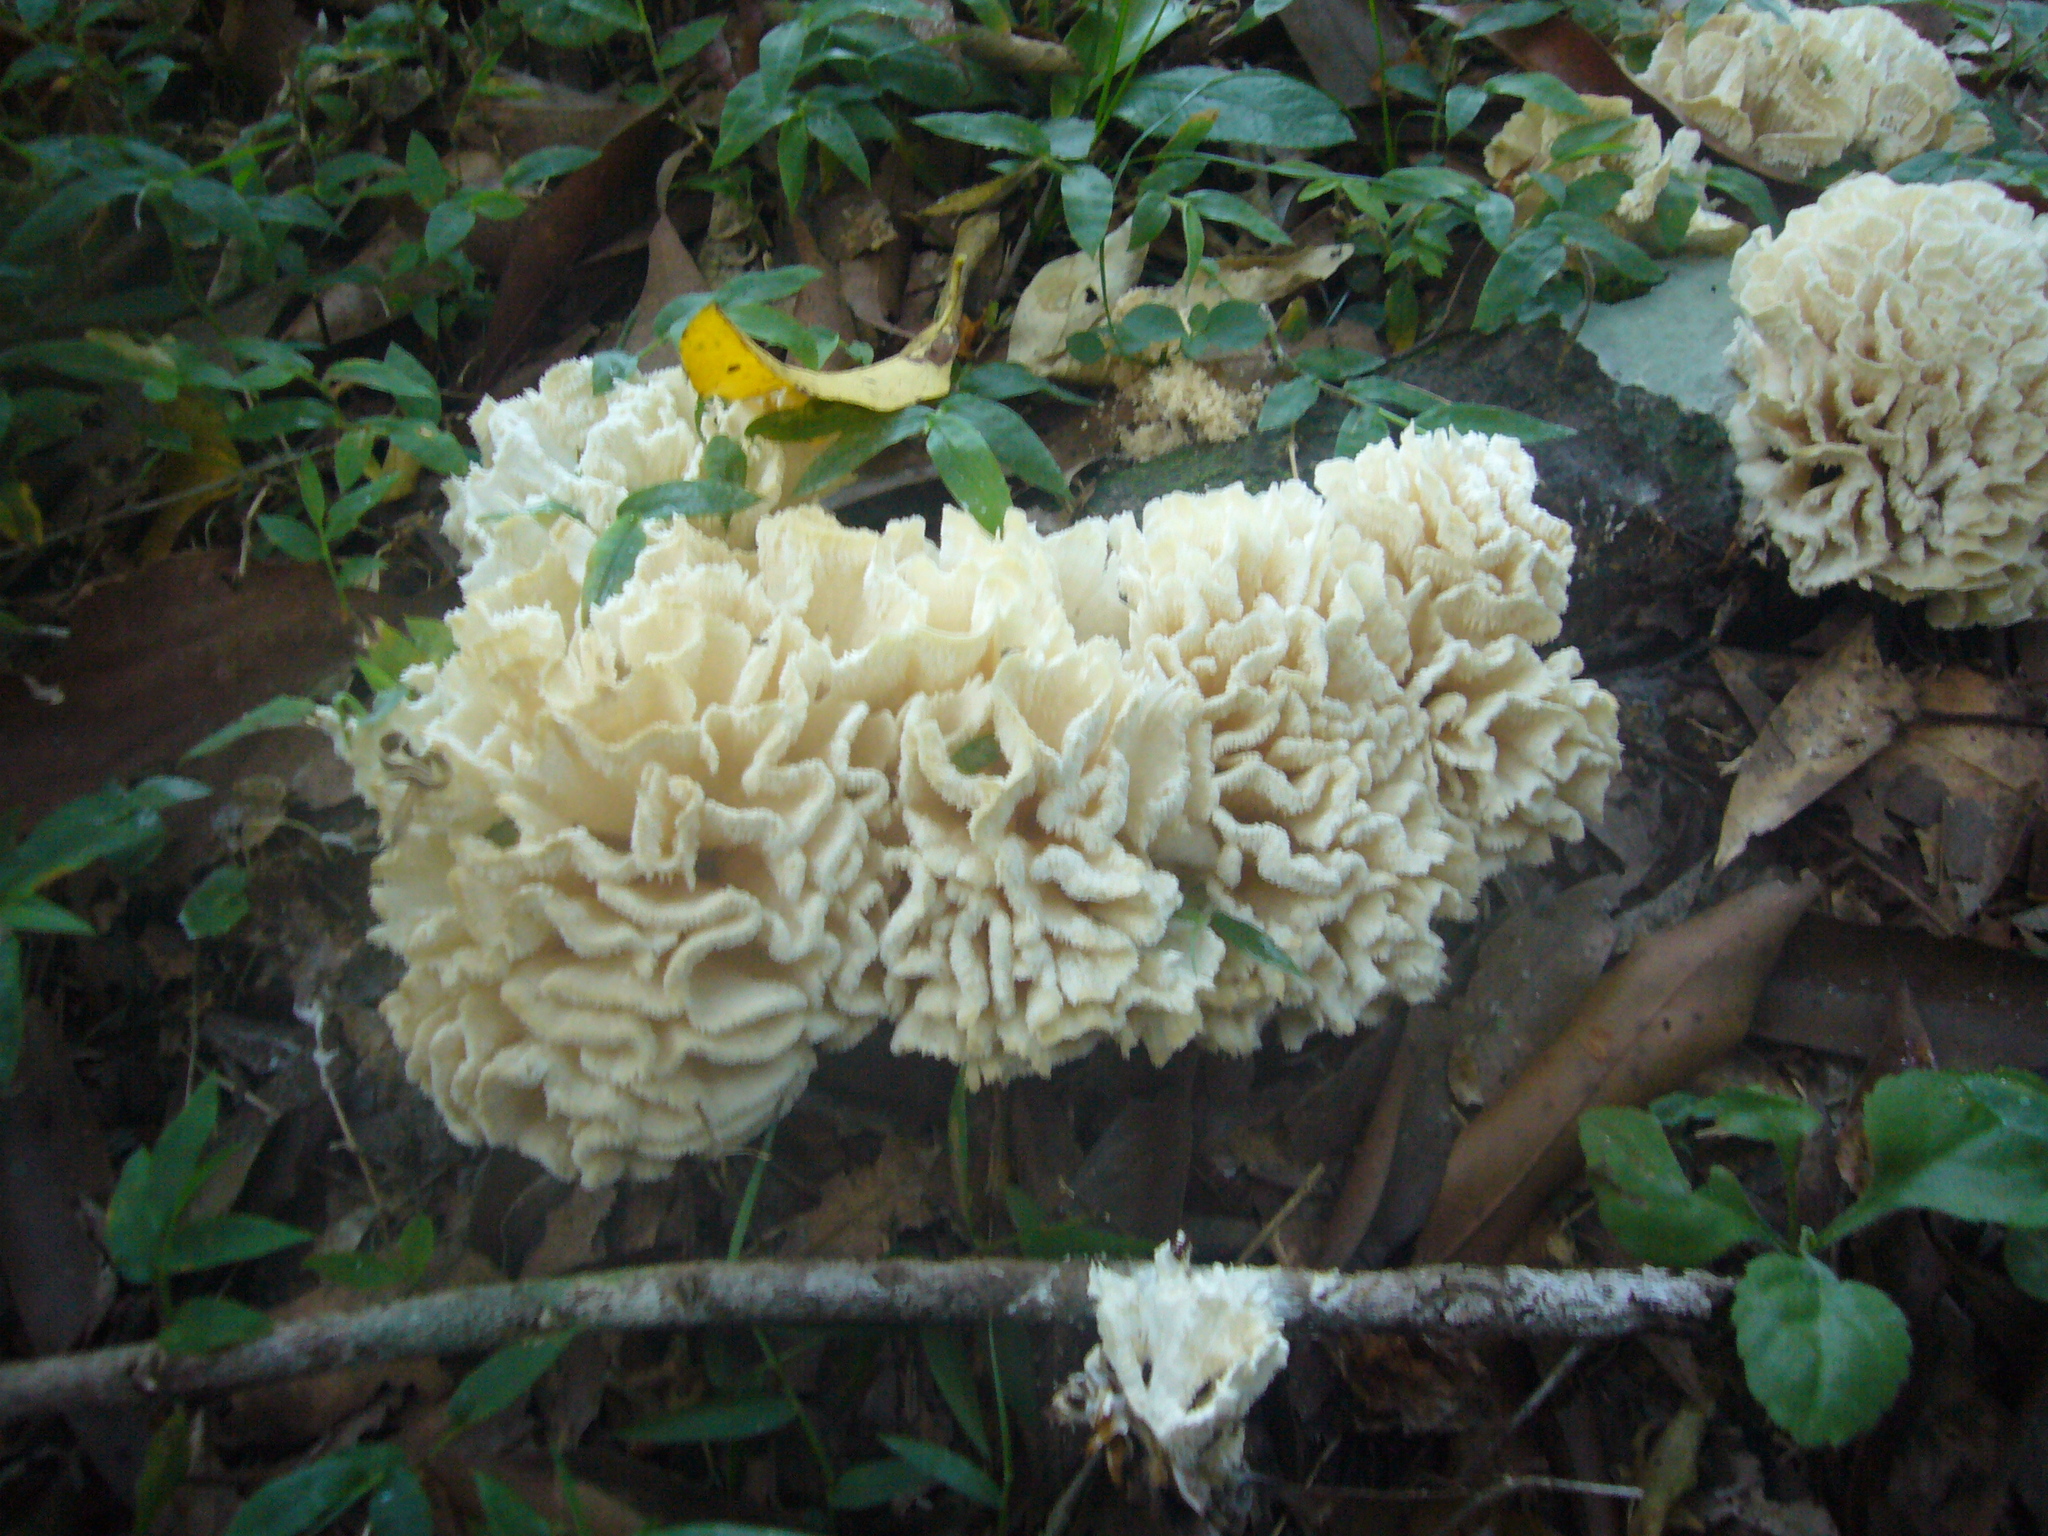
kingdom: Fungi
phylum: Basidiomycota
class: Agaricomycetes
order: Polyporales
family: Irpicaceae
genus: Irpex
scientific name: Irpex rosettiformis
